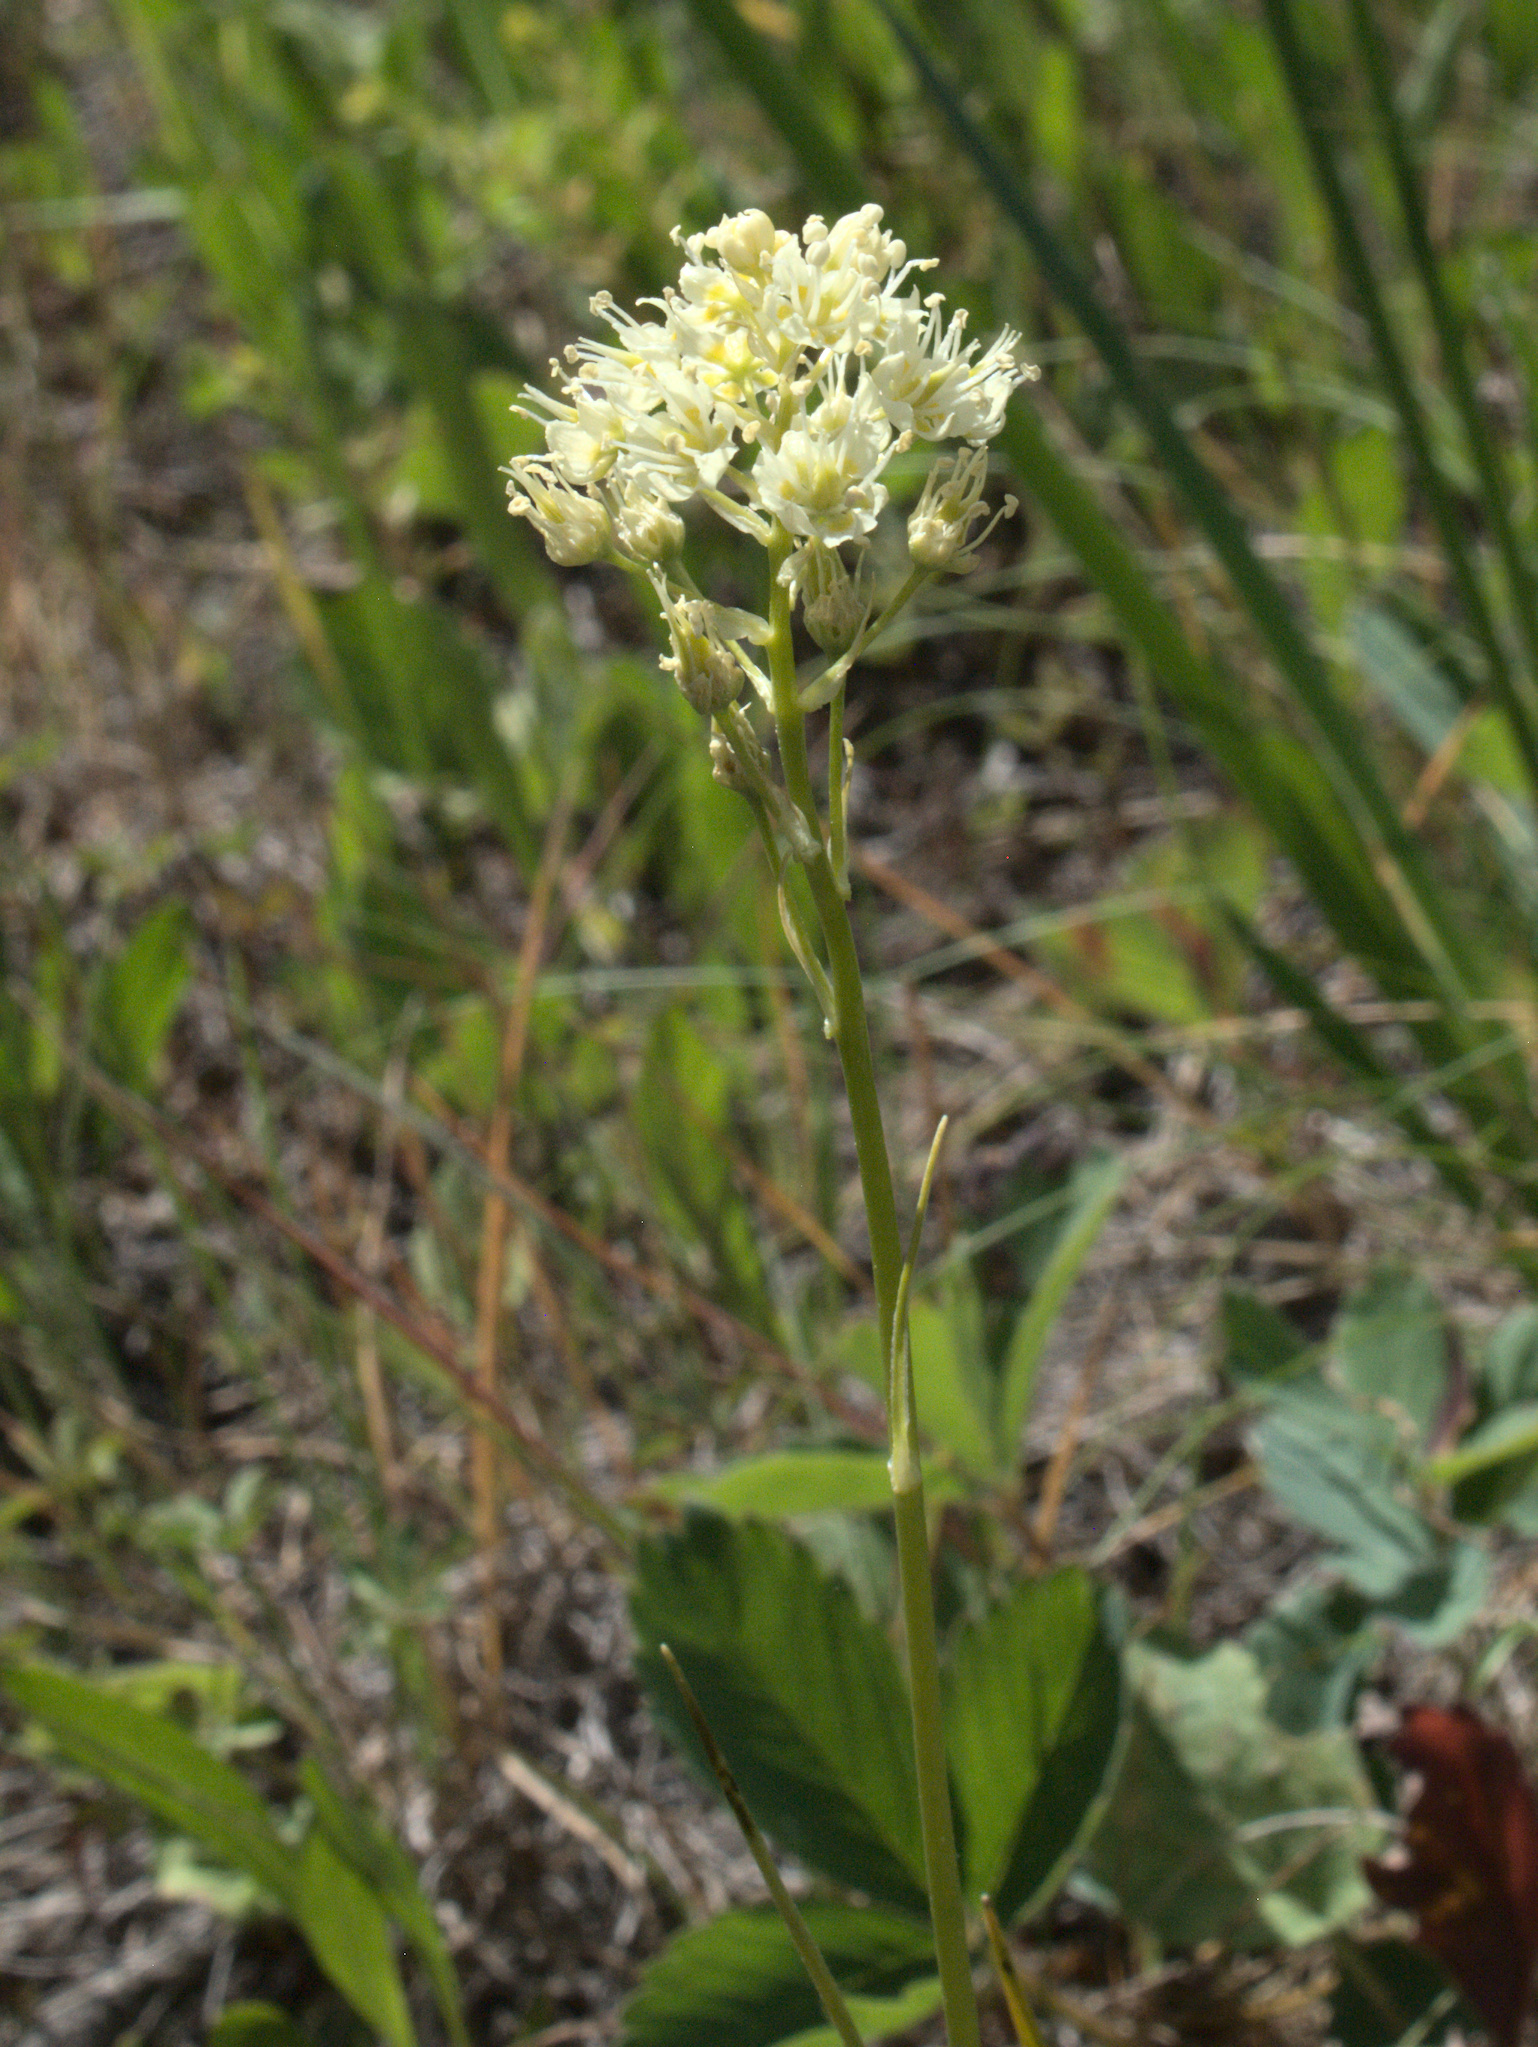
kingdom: Plantae
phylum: Tracheophyta
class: Liliopsida
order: Liliales
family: Melanthiaceae
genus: Toxicoscordion
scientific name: Toxicoscordion venenosum
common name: Meadow death camas
